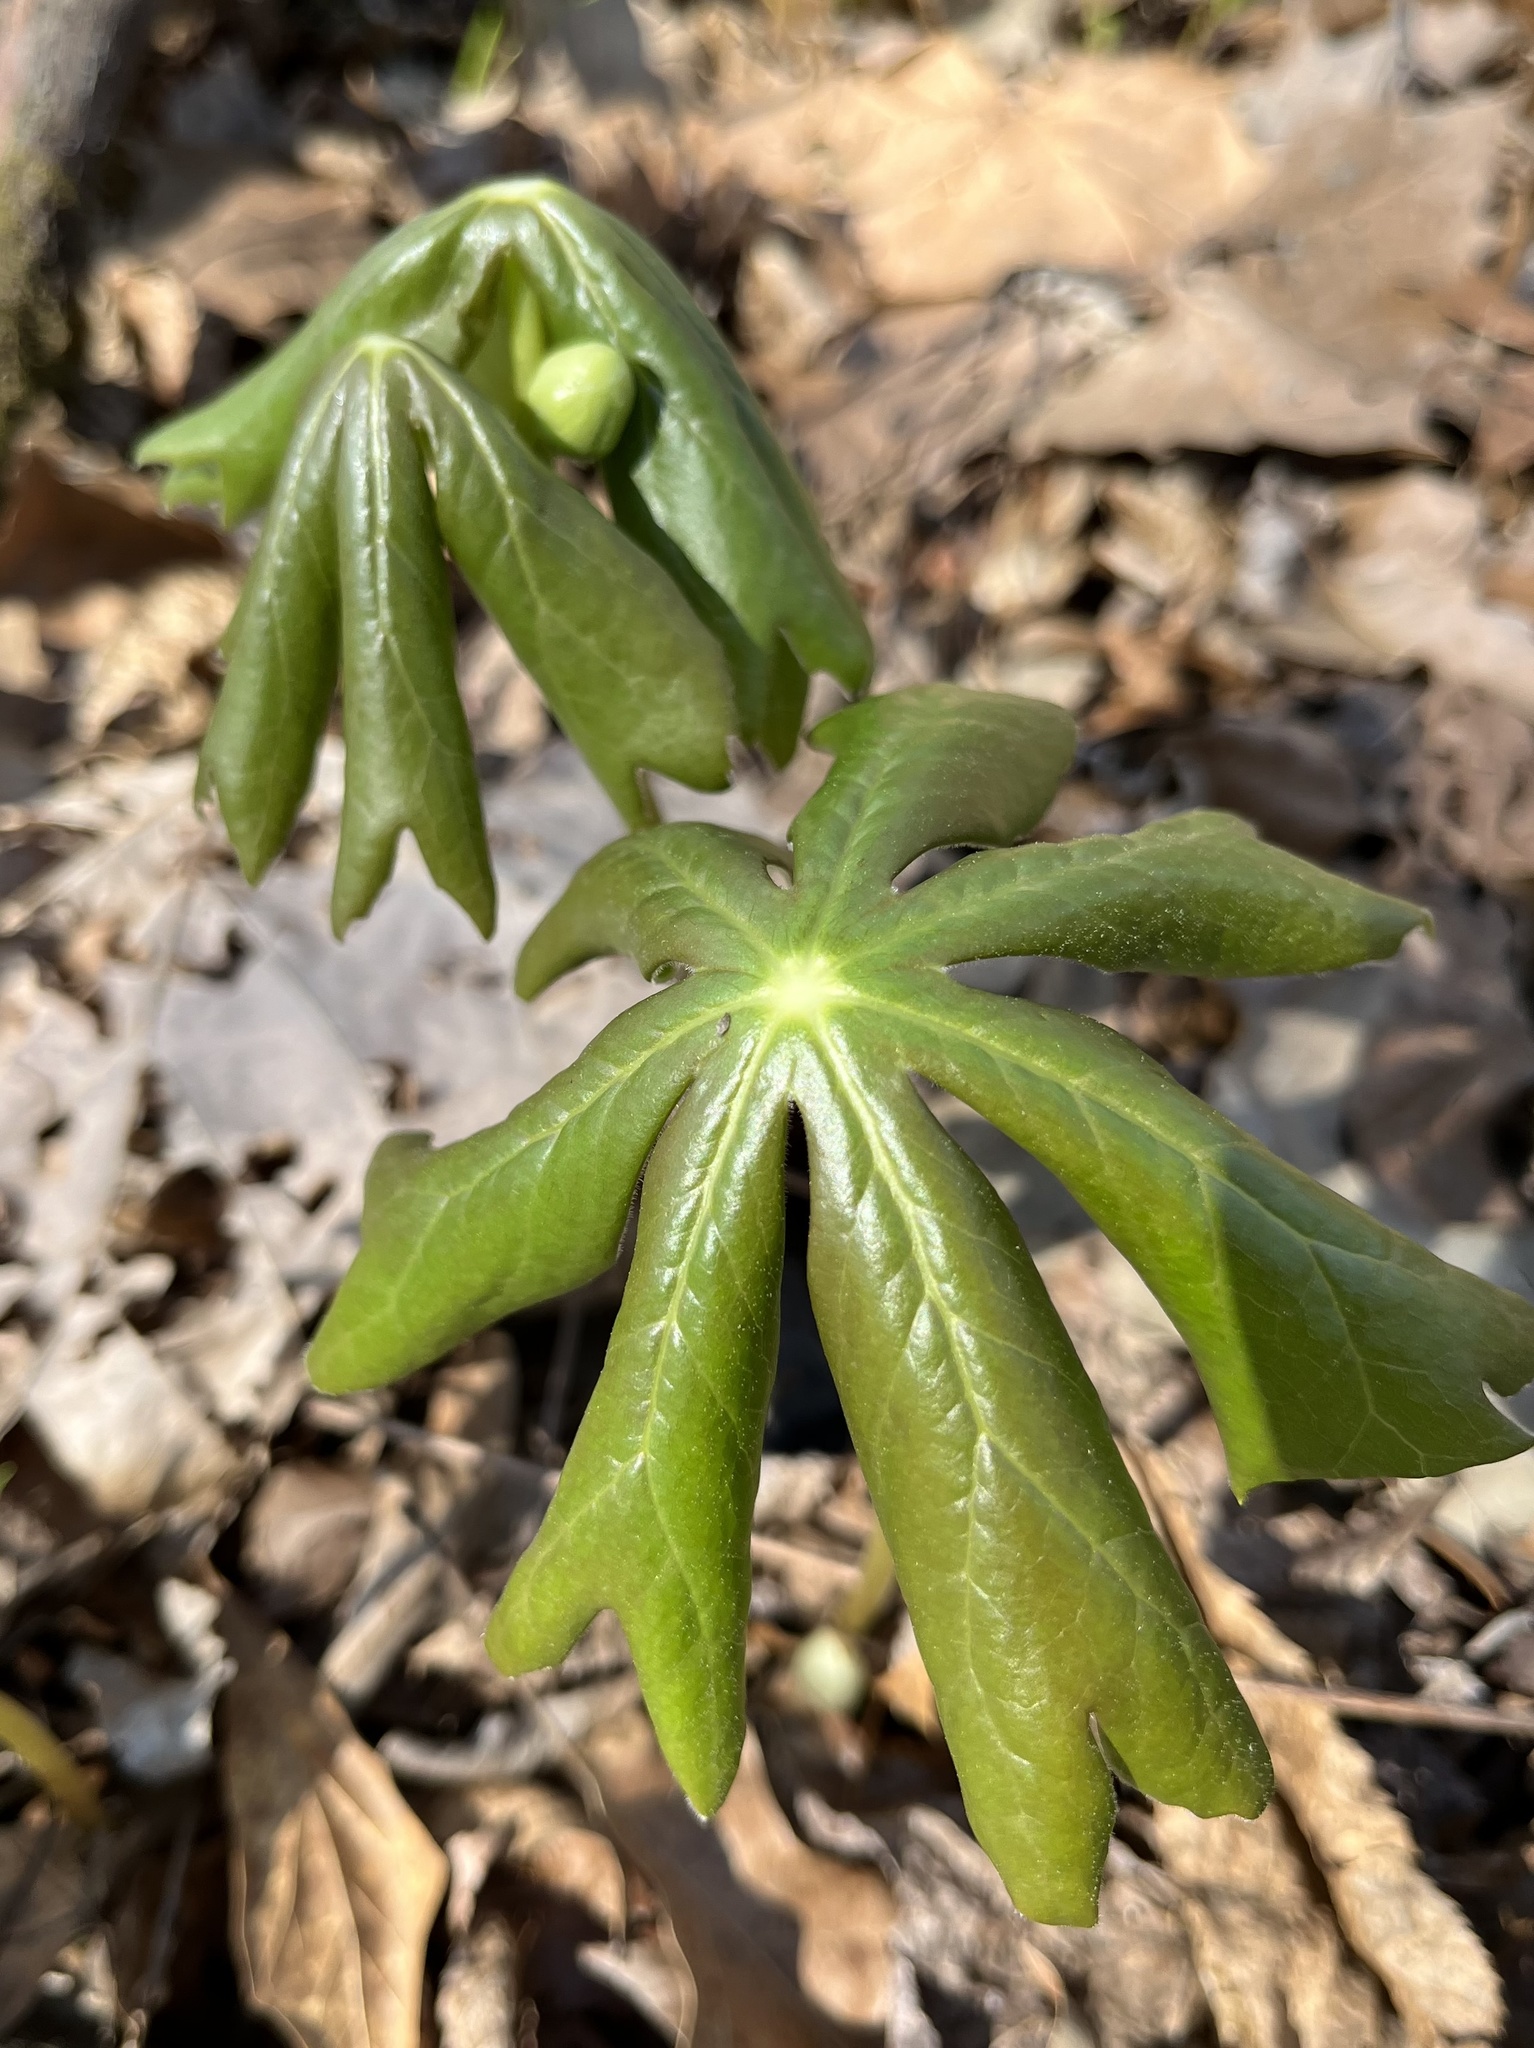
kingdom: Plantae
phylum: Tracheophyta
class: Magnoliopsida
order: Ranunculales
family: Berberidaceae
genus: Podophyllum
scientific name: Podophyllum peltatum
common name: Wild mandrake
